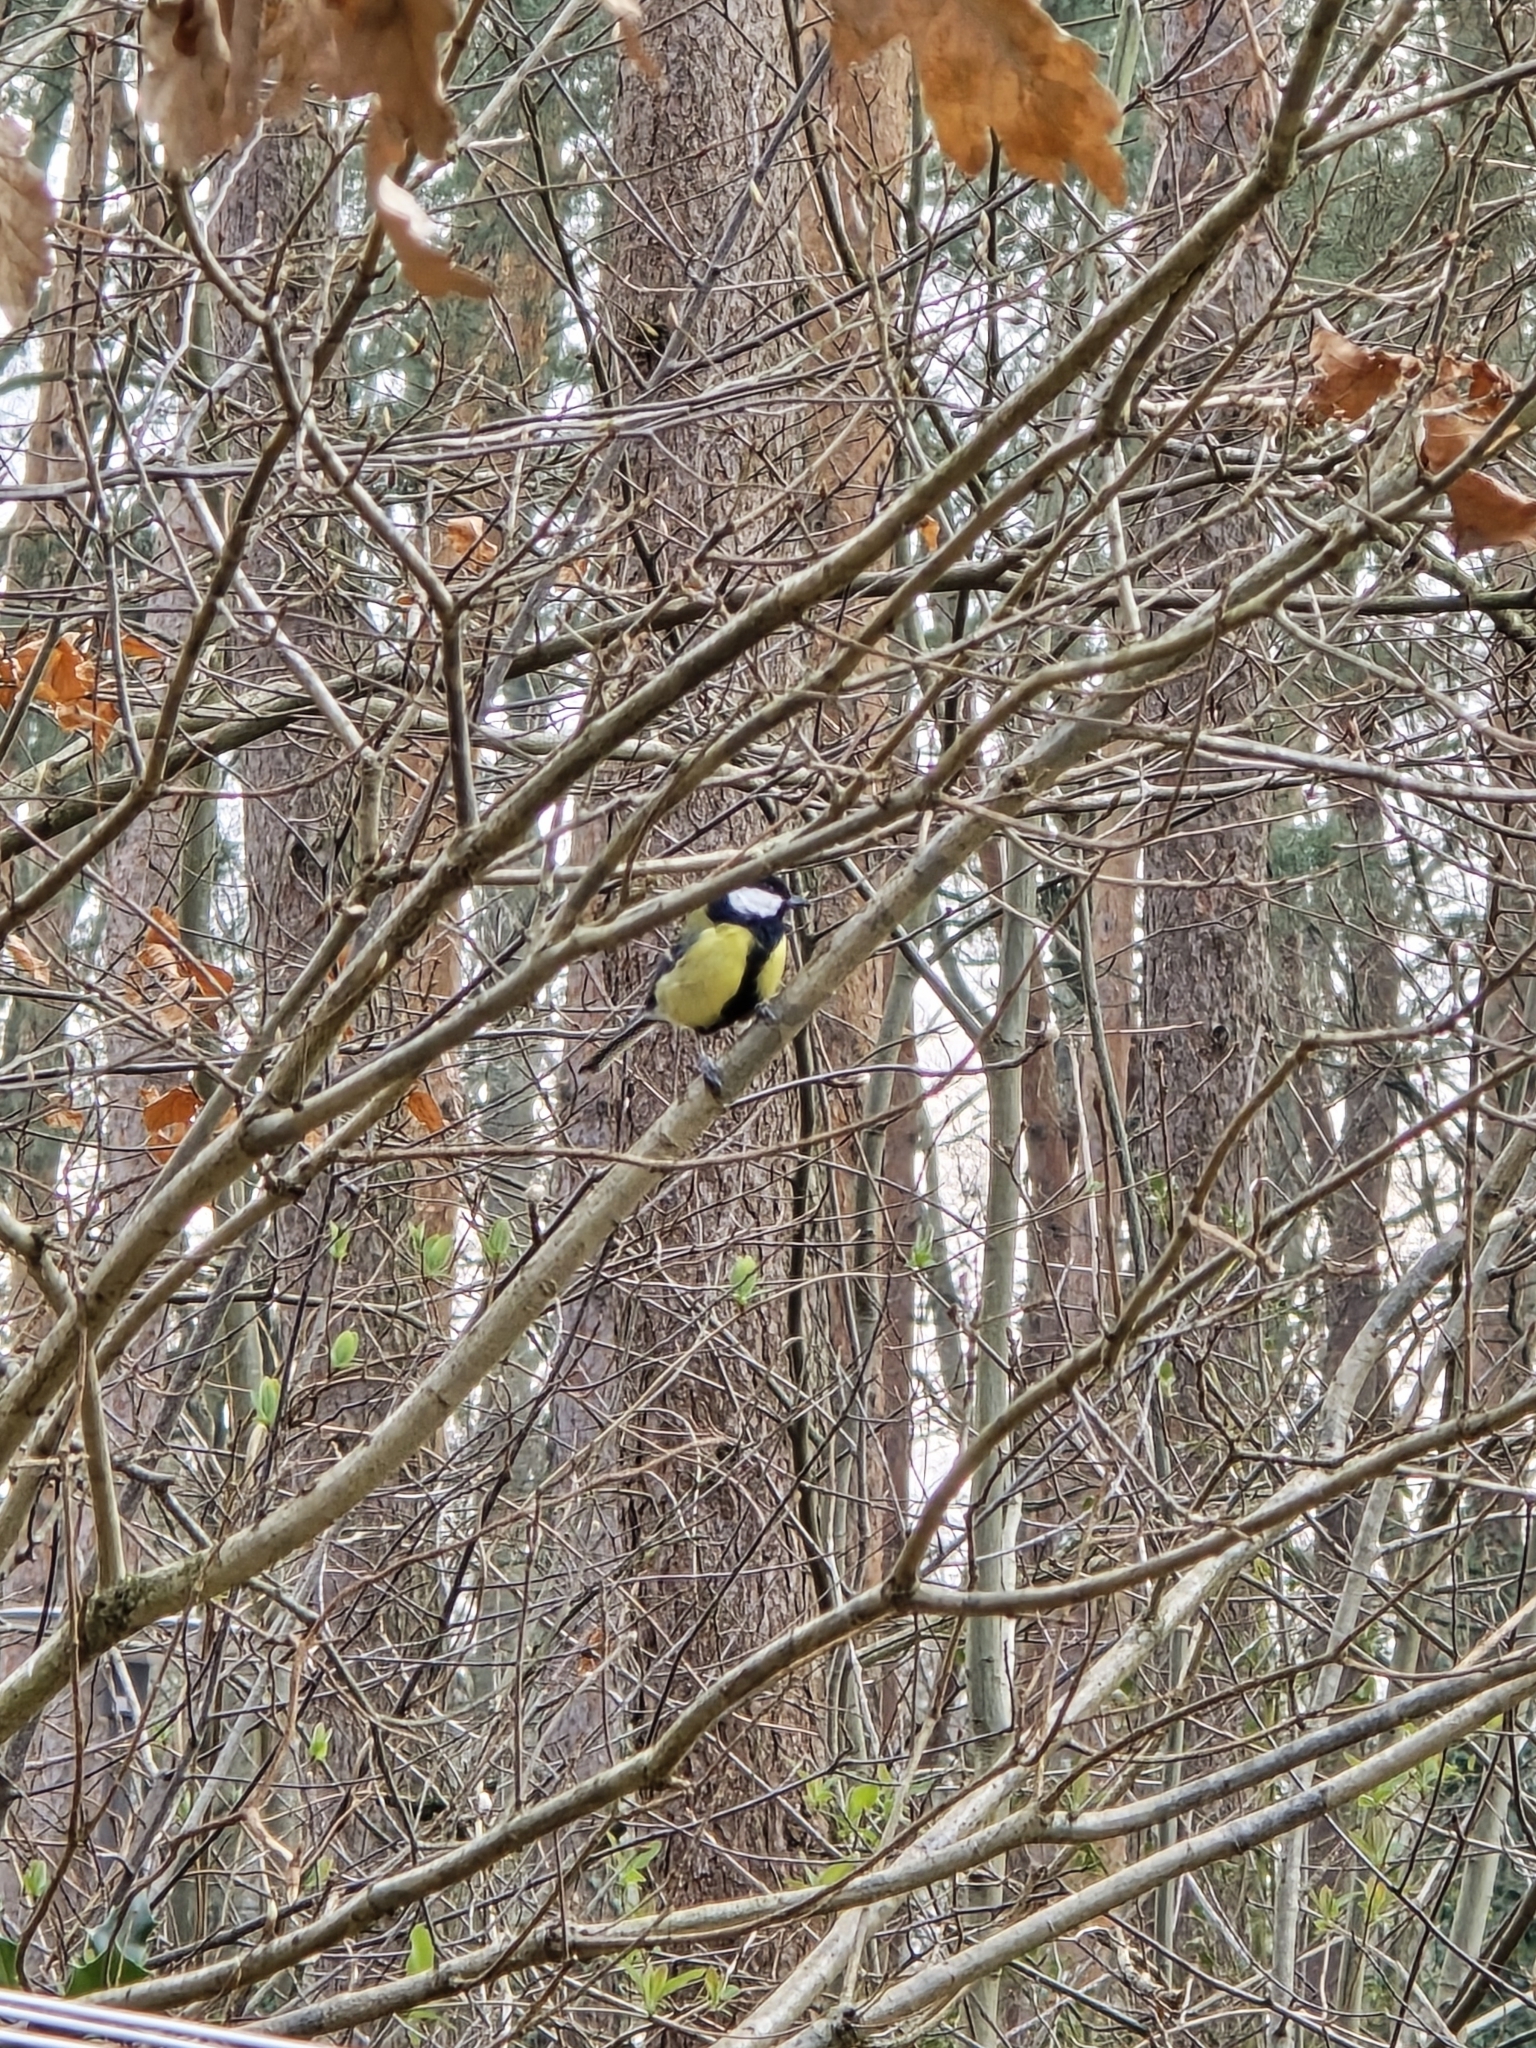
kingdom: Animalia
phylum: Chordata
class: Aves
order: Passeriformes
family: Paridae
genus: Parus
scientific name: Parus major
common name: Great tit
